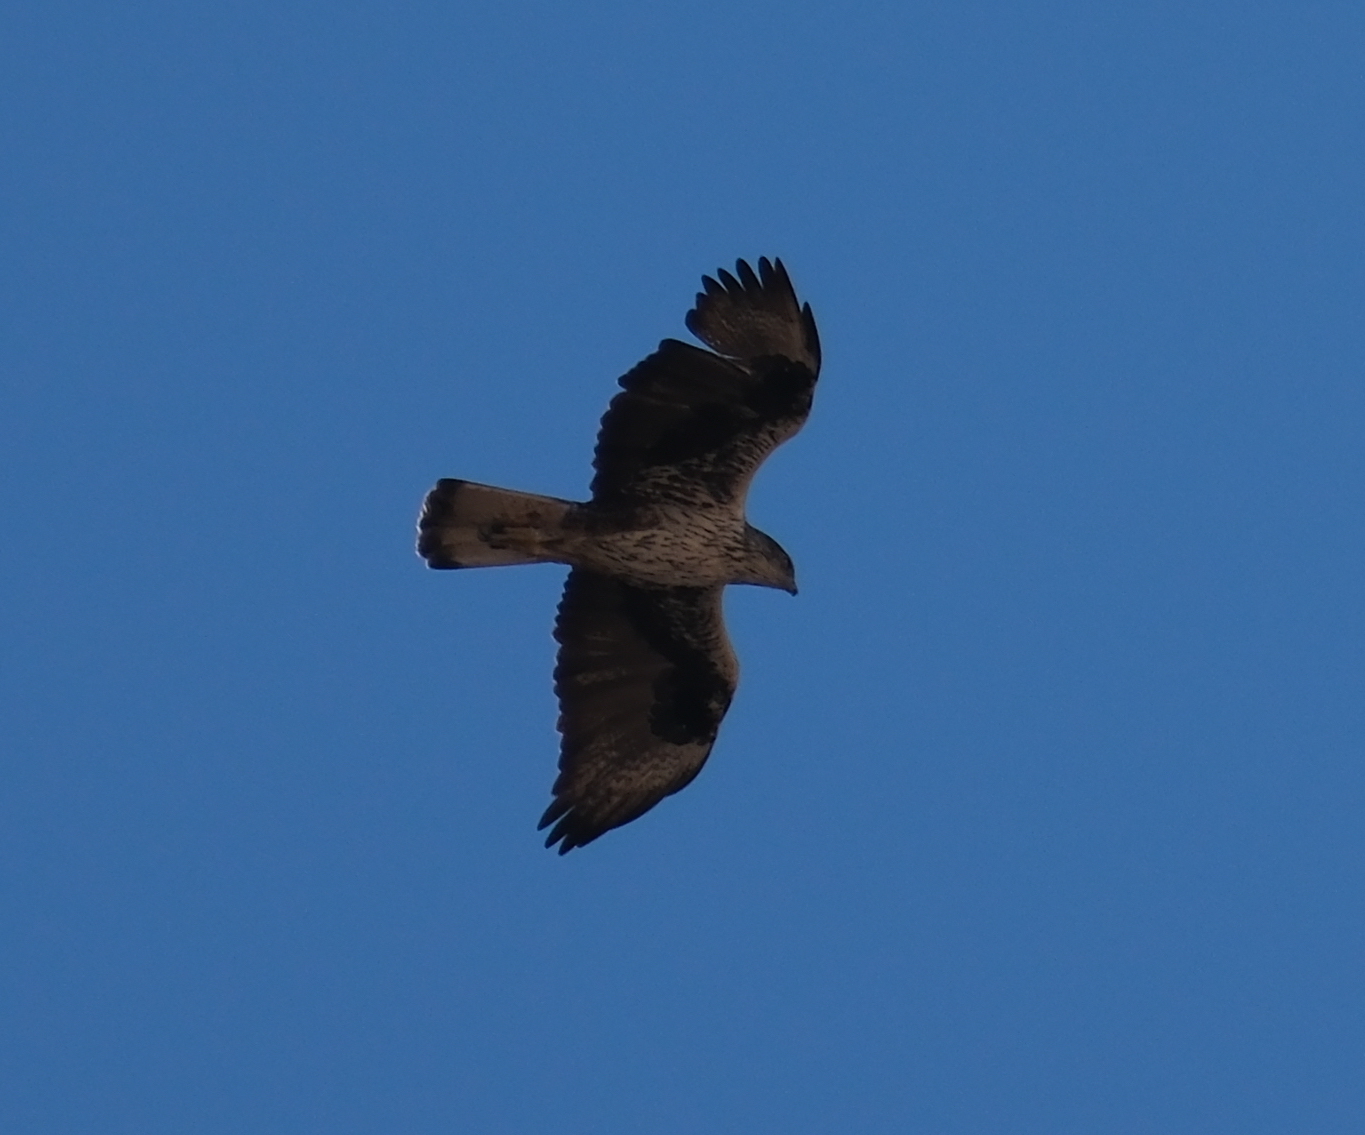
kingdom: Animalia
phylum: Chordata
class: Aves
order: Accipitriformes
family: Accipitridae
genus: Aquila
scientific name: Aquila fasciata
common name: Bonelli's eagle
